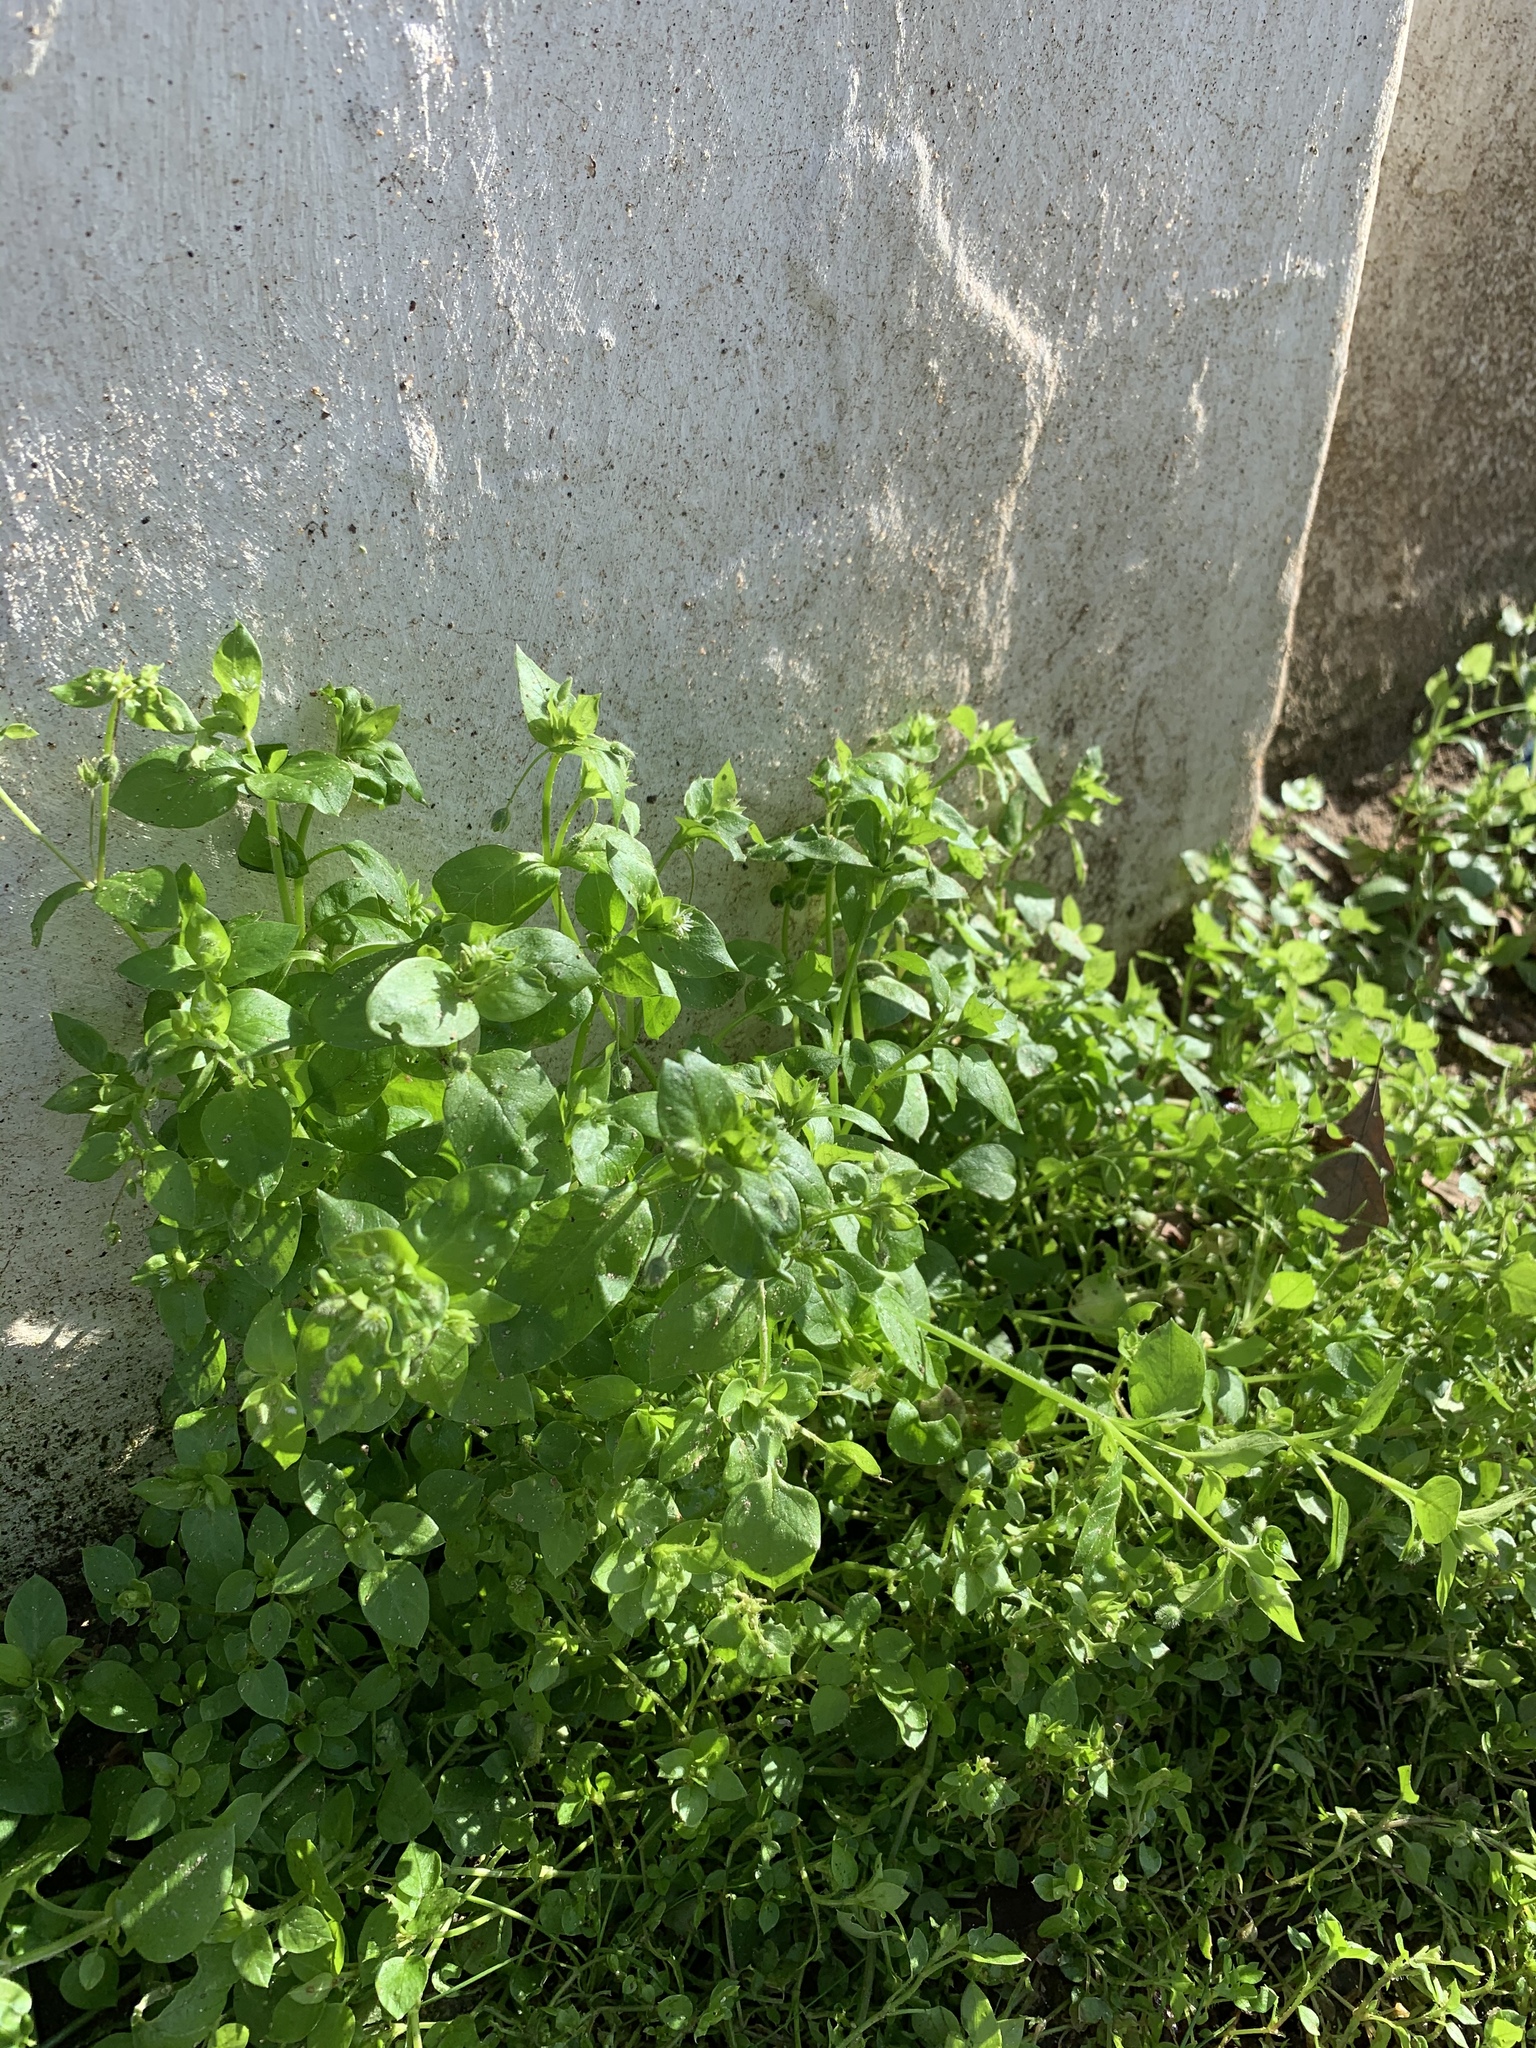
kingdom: Plantae
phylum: Tracheophyta
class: Magnoliopsida
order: Caryophyllales
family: Caryophyllaceae
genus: Stellaria
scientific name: Stellaria media
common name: Common chickweed
